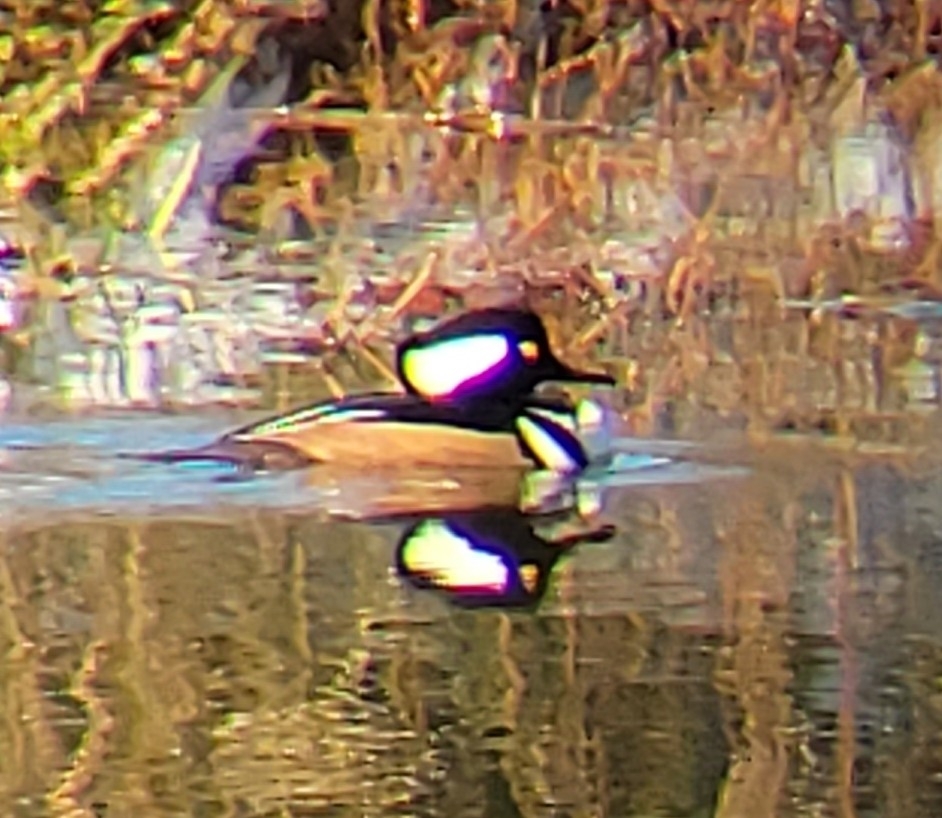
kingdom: Animalia
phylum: Chordata
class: Aves
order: Anseriformes
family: Anatidae
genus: Lophodytes
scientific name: Lophodytes cucullatus
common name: Hooded merganser
